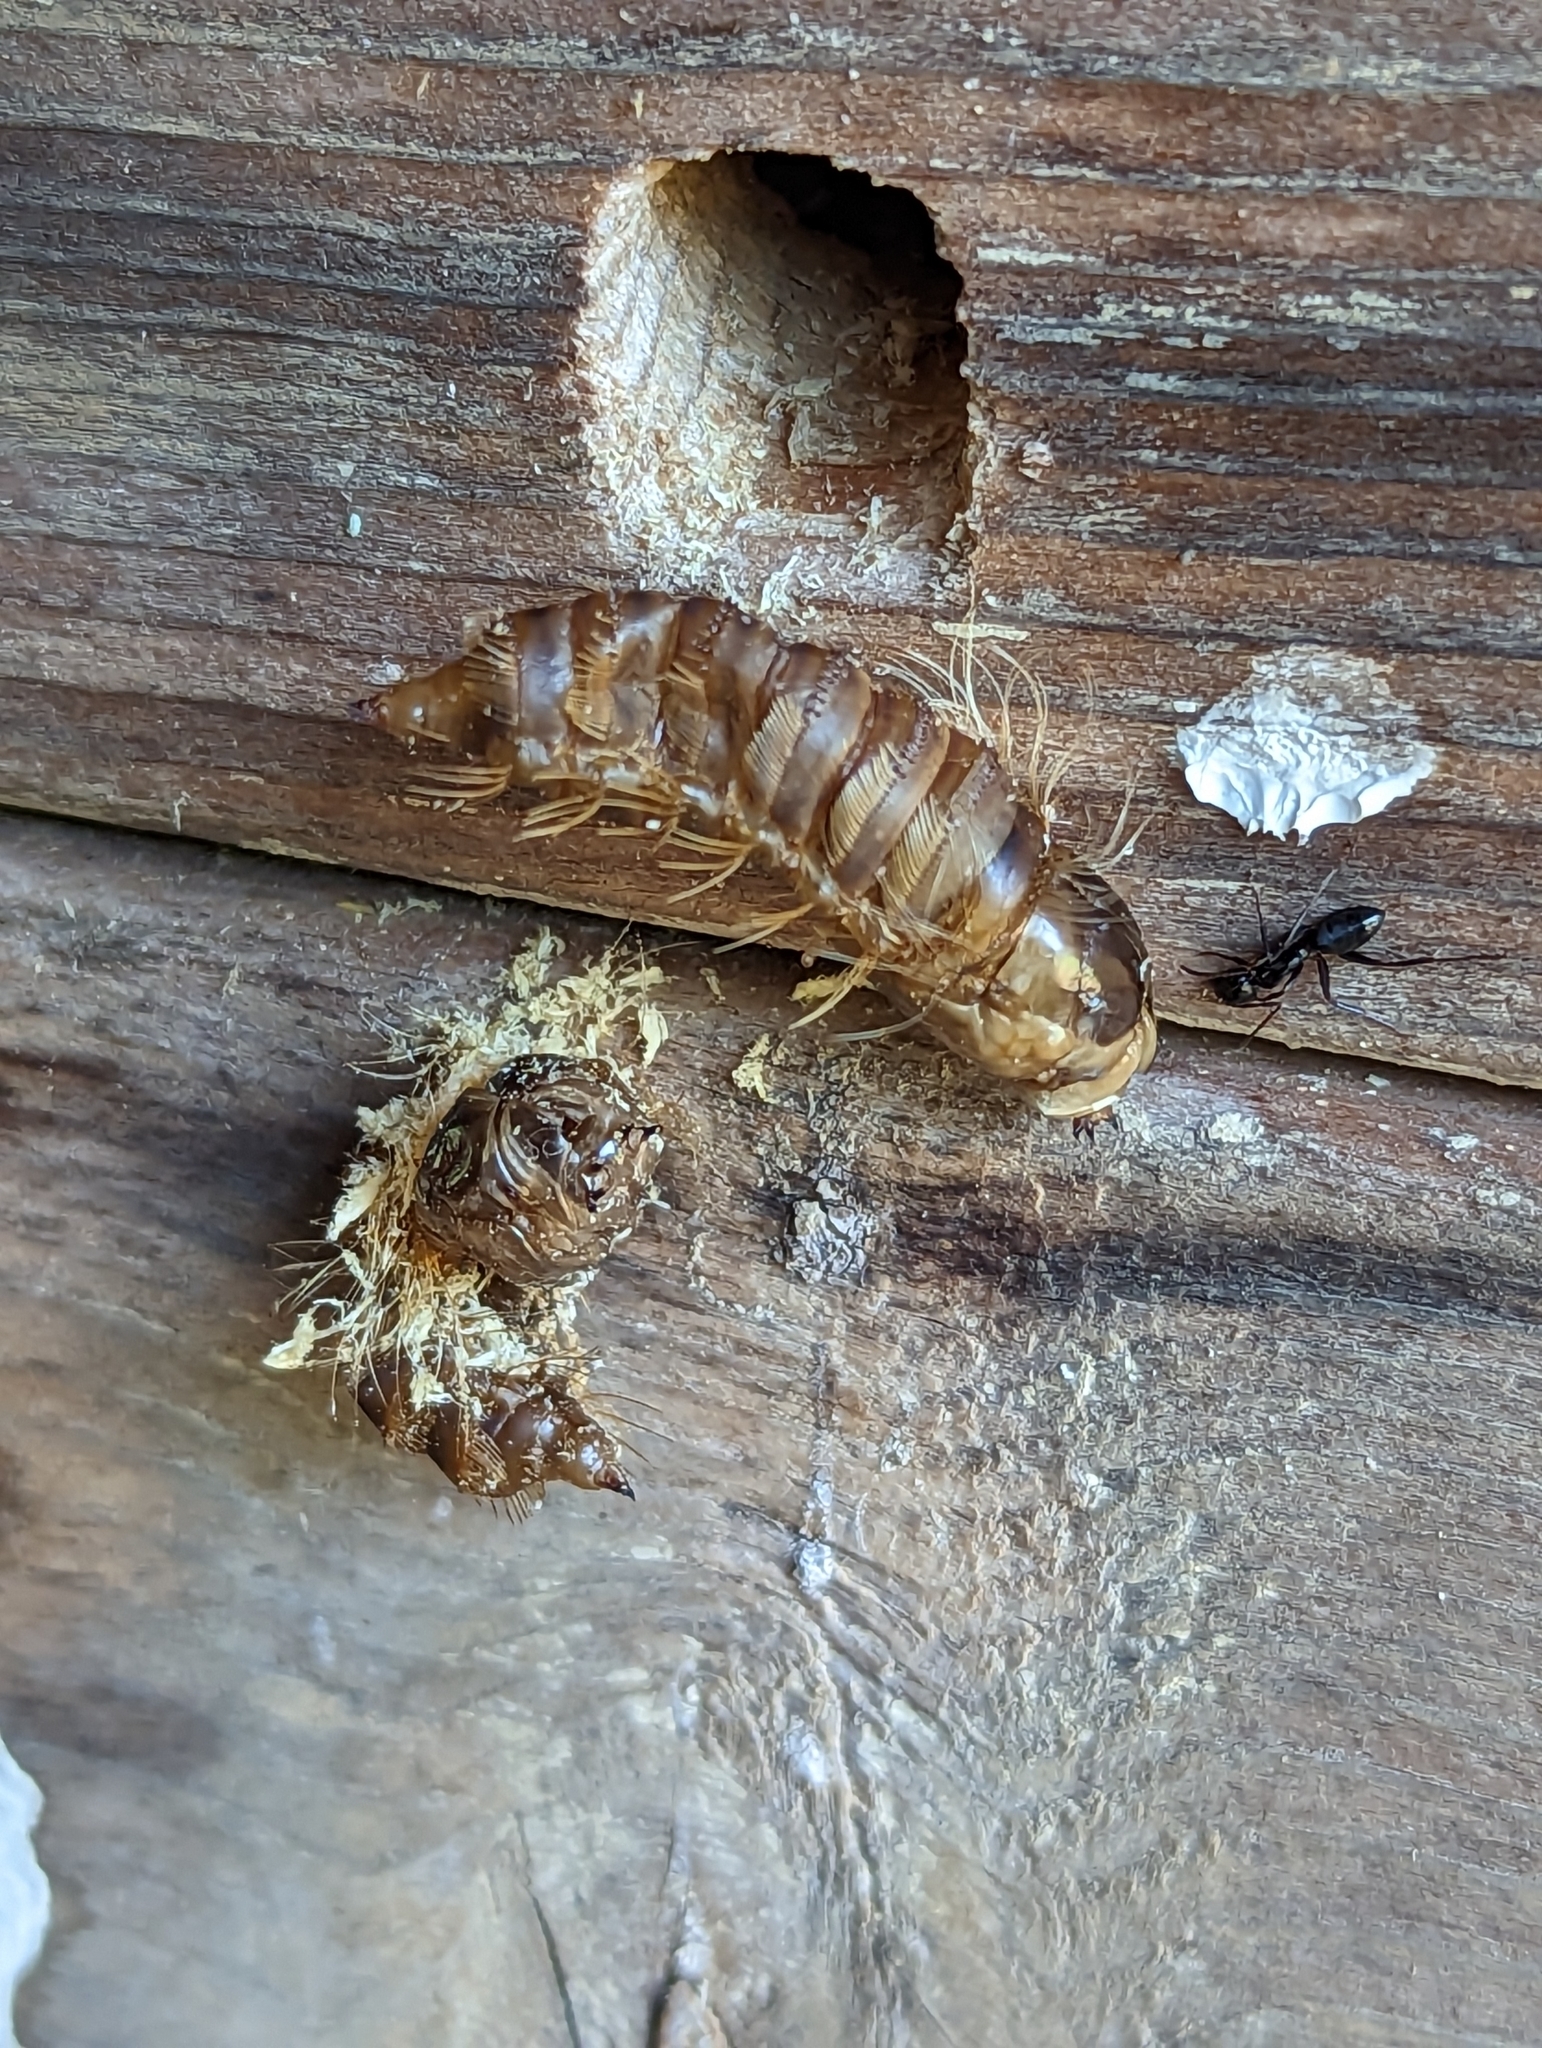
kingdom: Animalia
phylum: Arthropoda
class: Insecta
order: Diptera
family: Bombyliidae
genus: Xenox
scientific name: Xenox tigrinus
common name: Tiger bee fly
